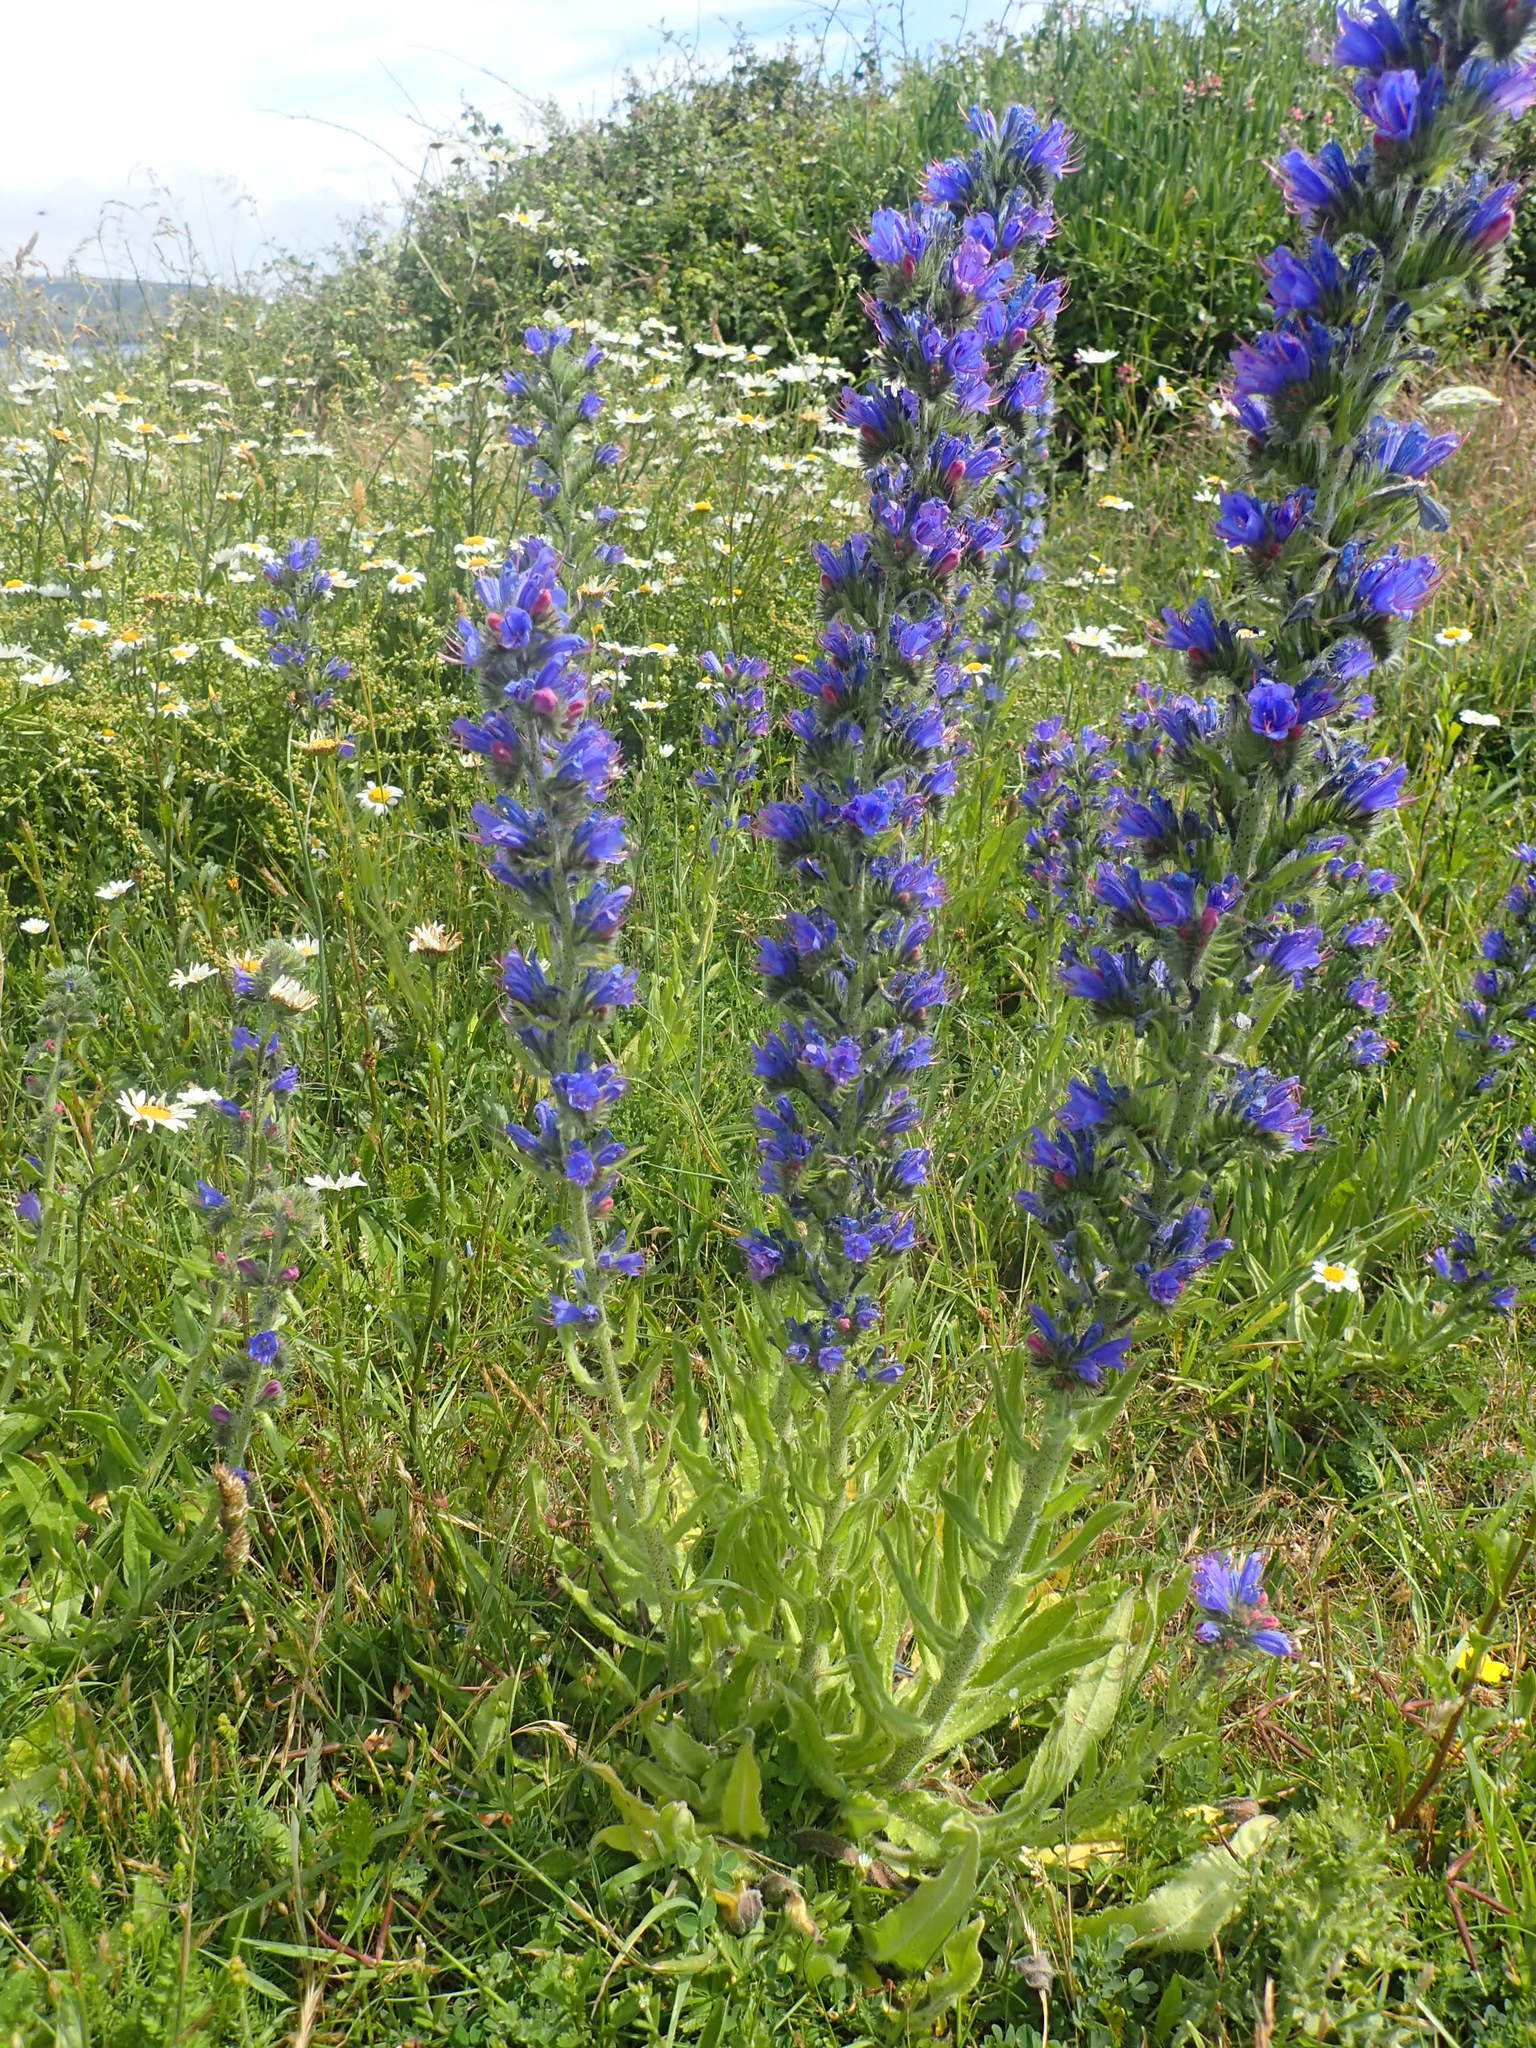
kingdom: Plantae
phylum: Tracheophyta
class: Magnoliopsida
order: Boraginales
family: Boraginaceae
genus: Echium
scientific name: Echium vulgare
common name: Common viper's bugloss
